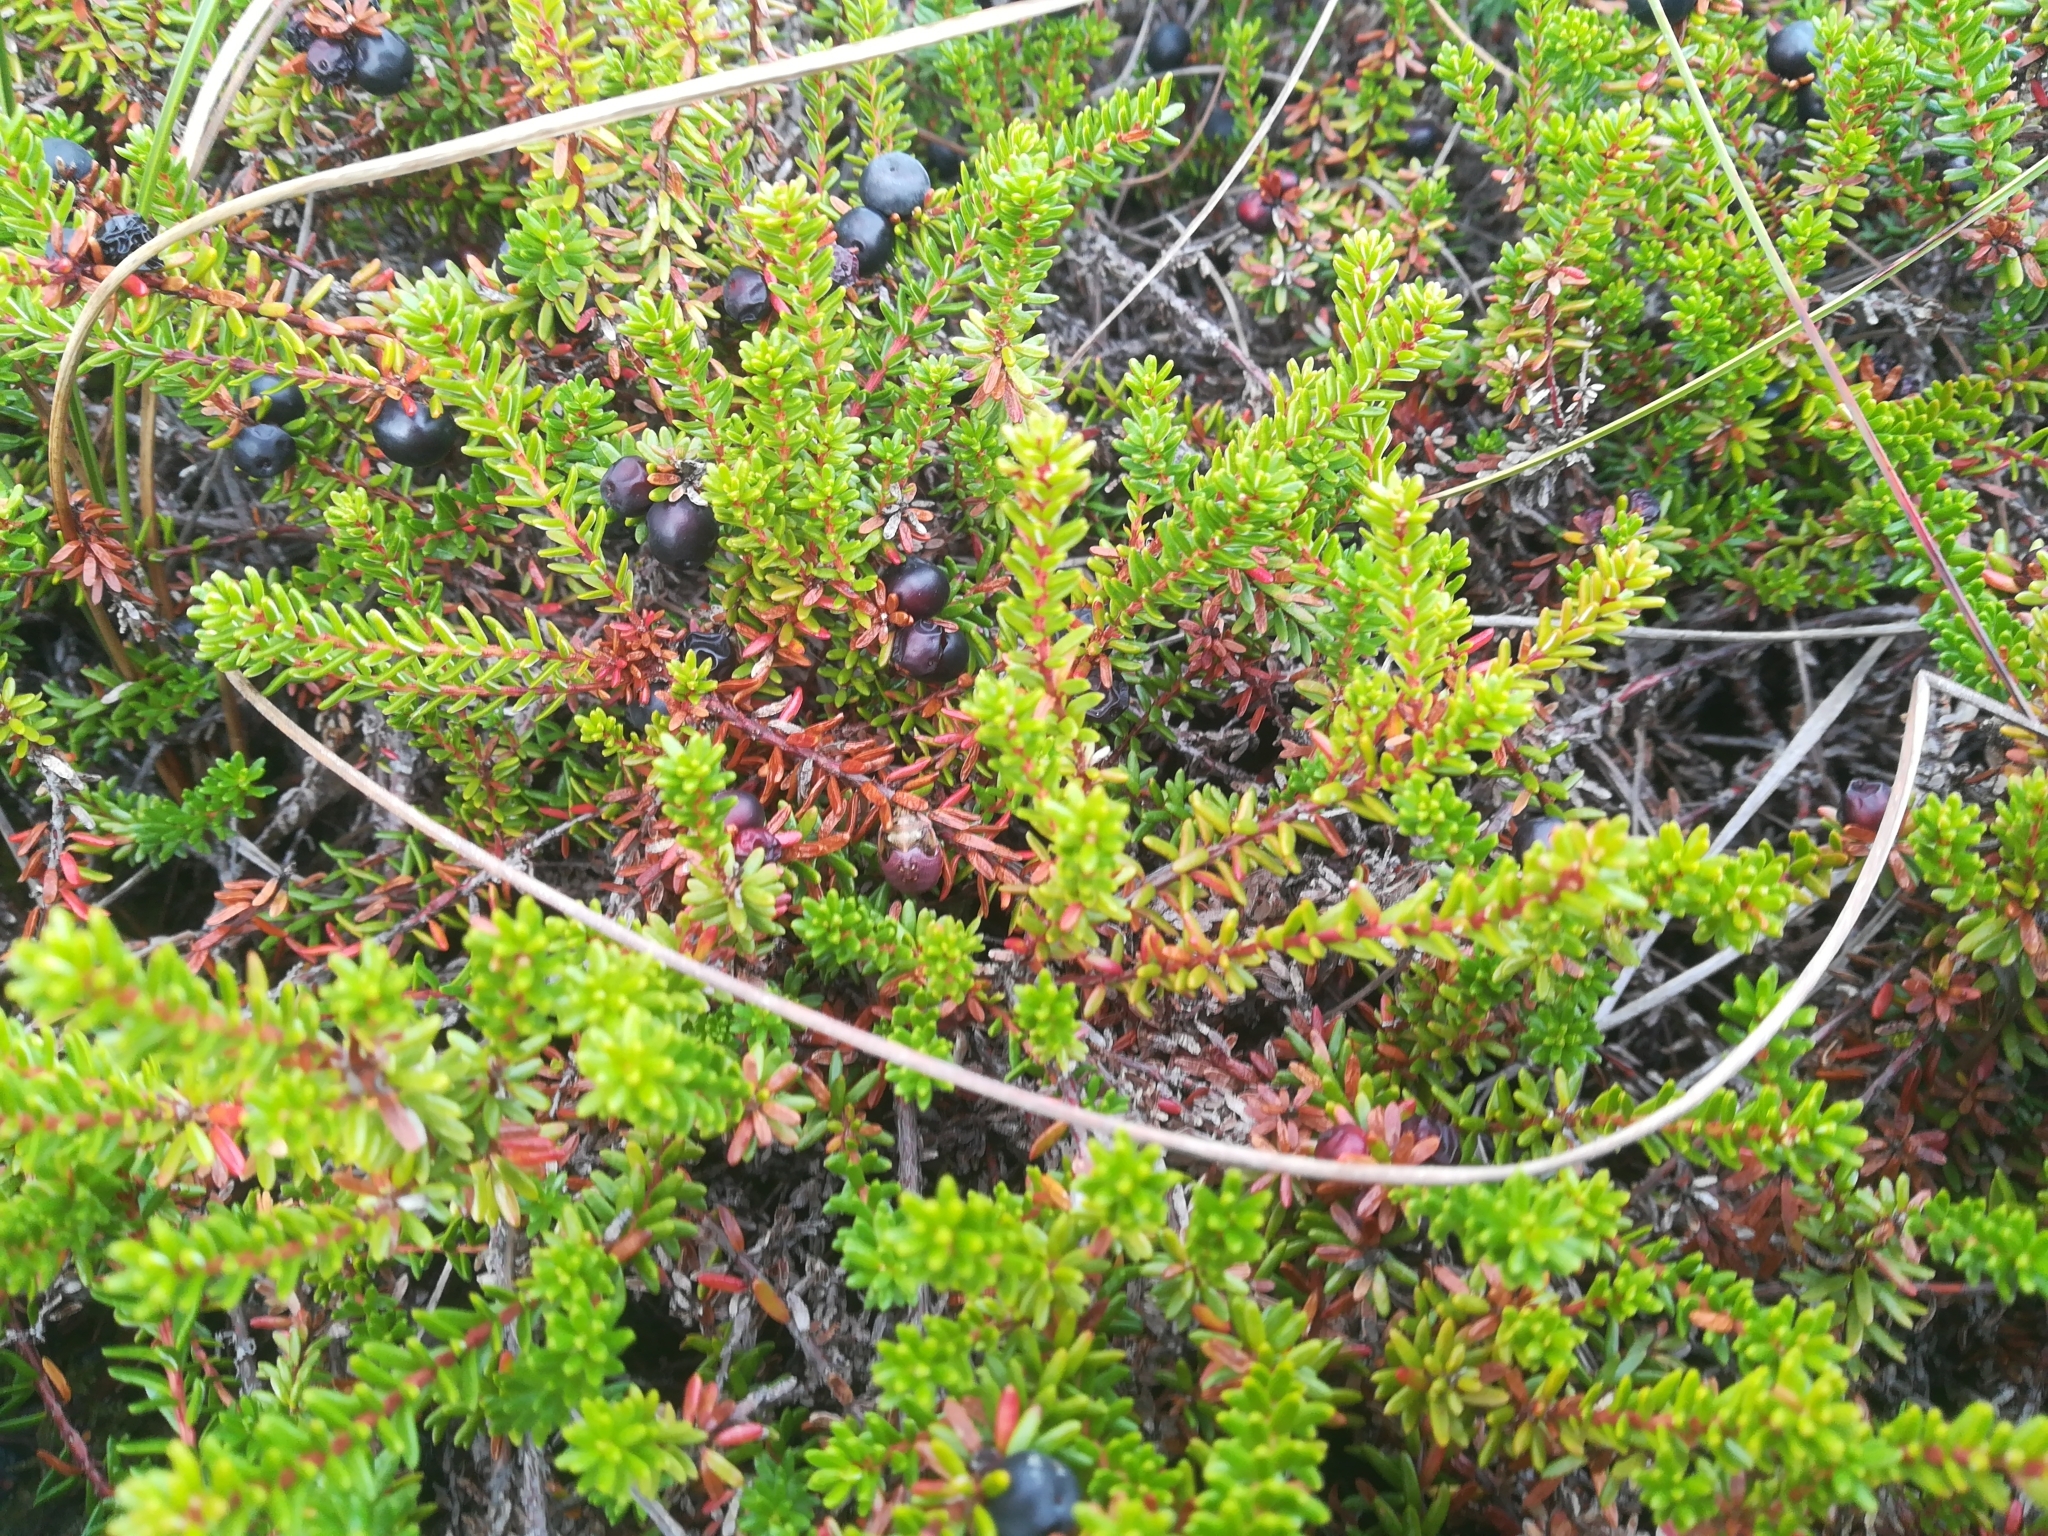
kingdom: Plantae
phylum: Tracheophyta
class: Magnoliopsida
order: Ericales
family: Ericaceae
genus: Empetrum
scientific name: Empetrum nigrum
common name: Black crowberry
